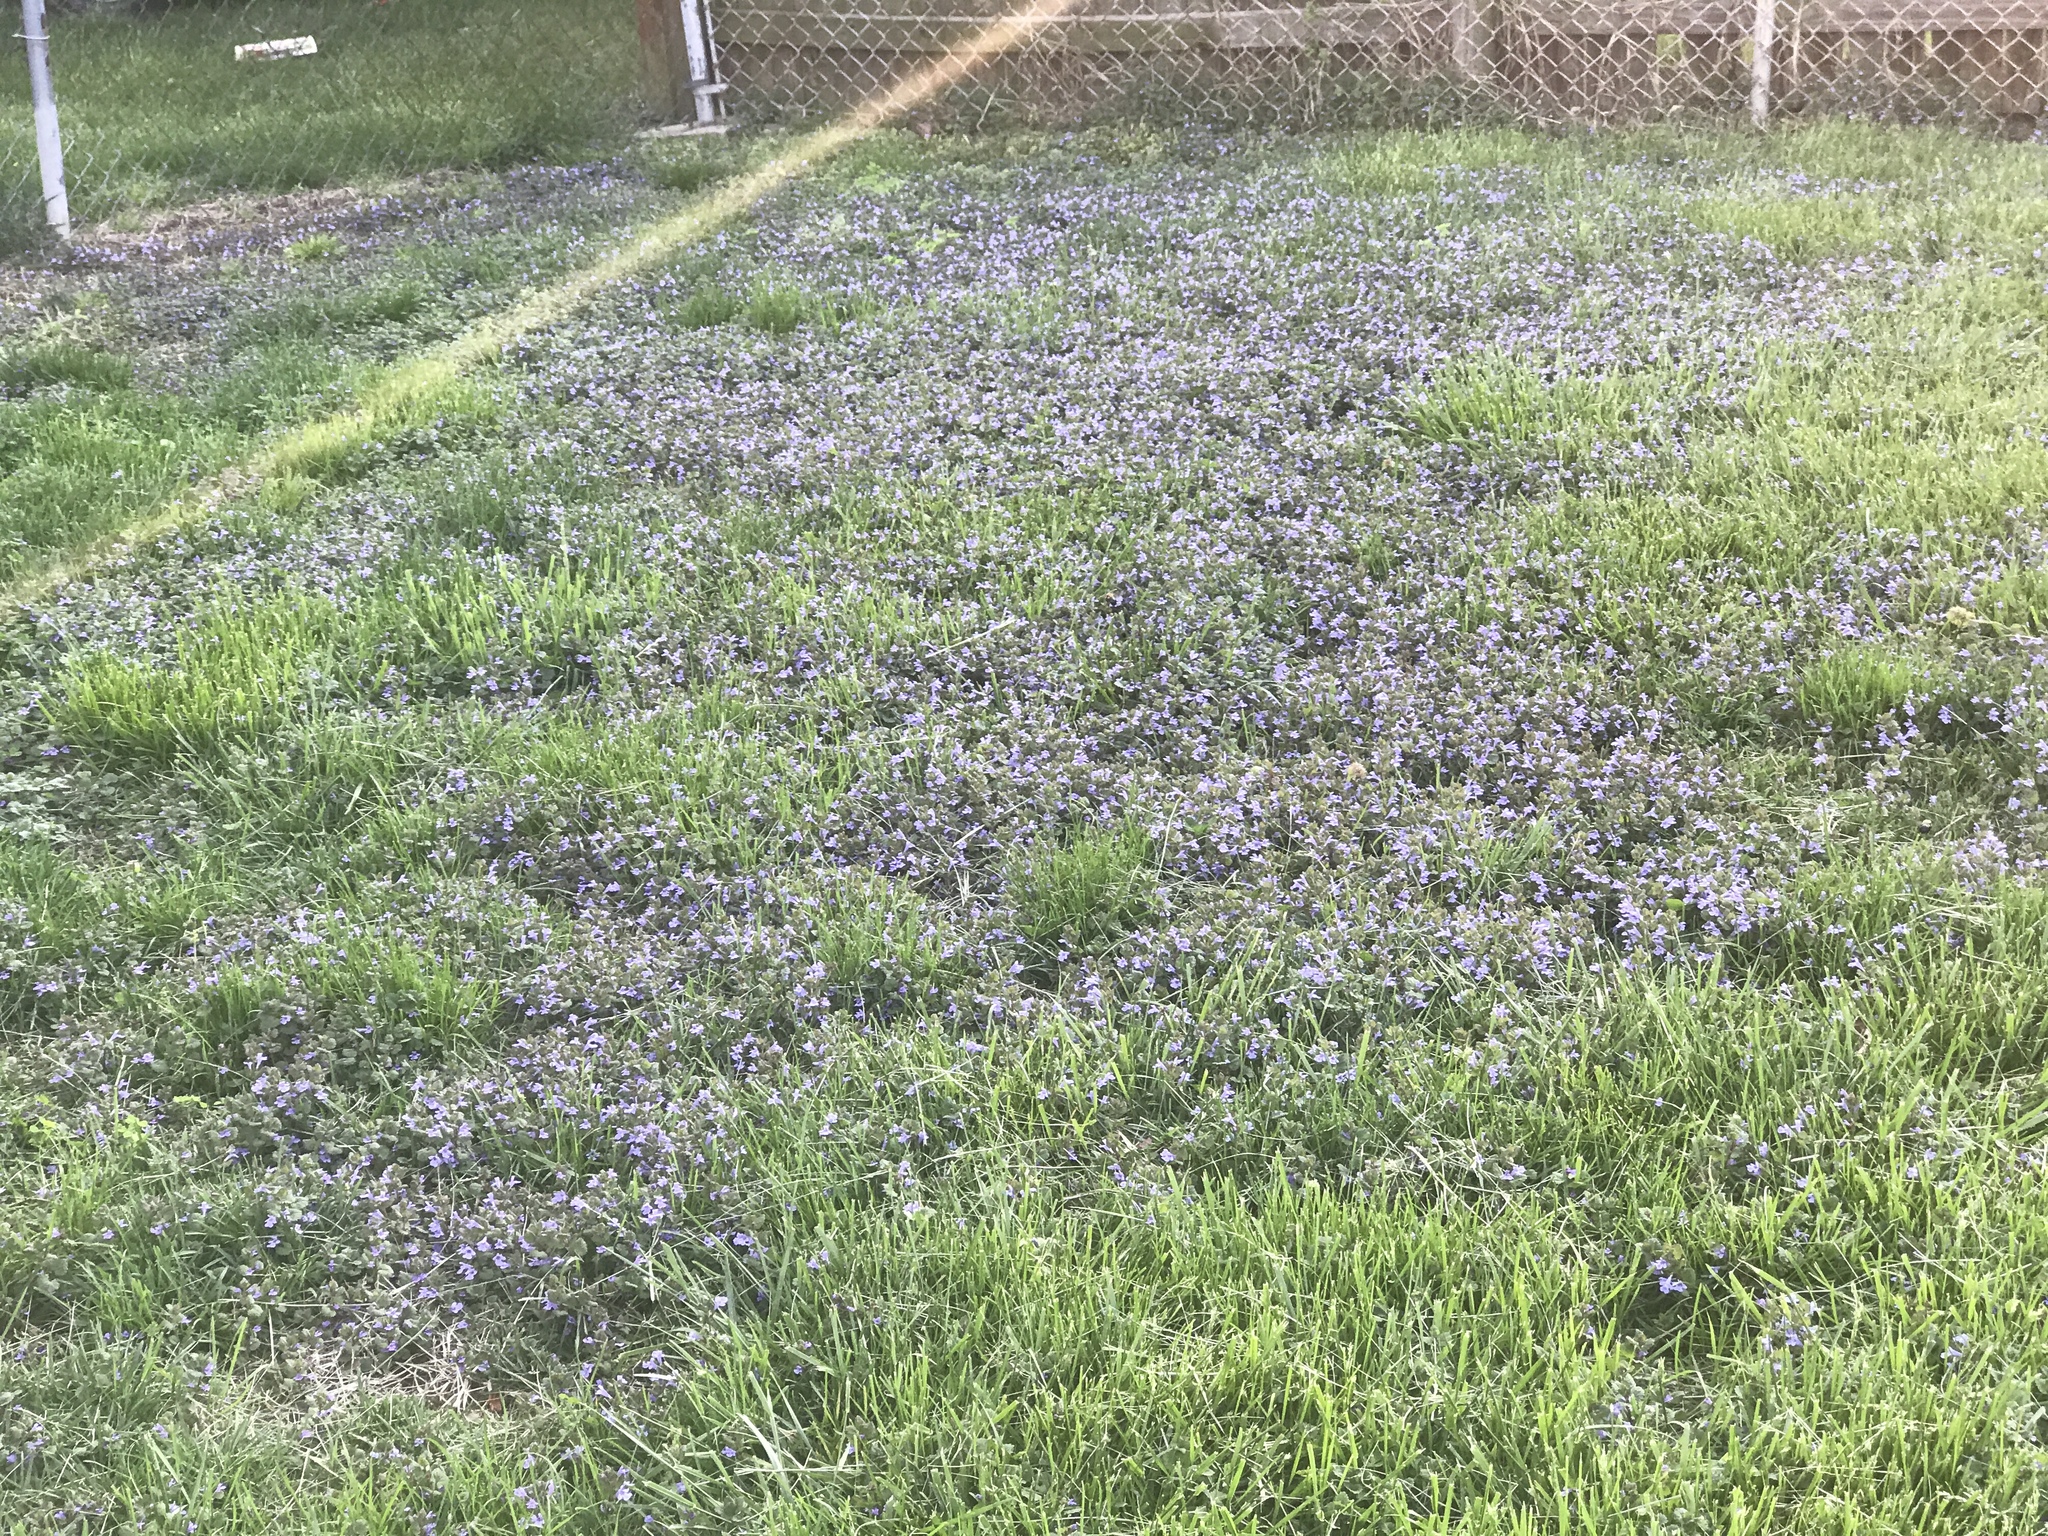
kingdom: Plantae
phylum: Tracheophyta
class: Magnoliopsida
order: Lamiales
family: Lamiaceae
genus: Glechoma
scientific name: Glechoma hederacea
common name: Ground ivy
